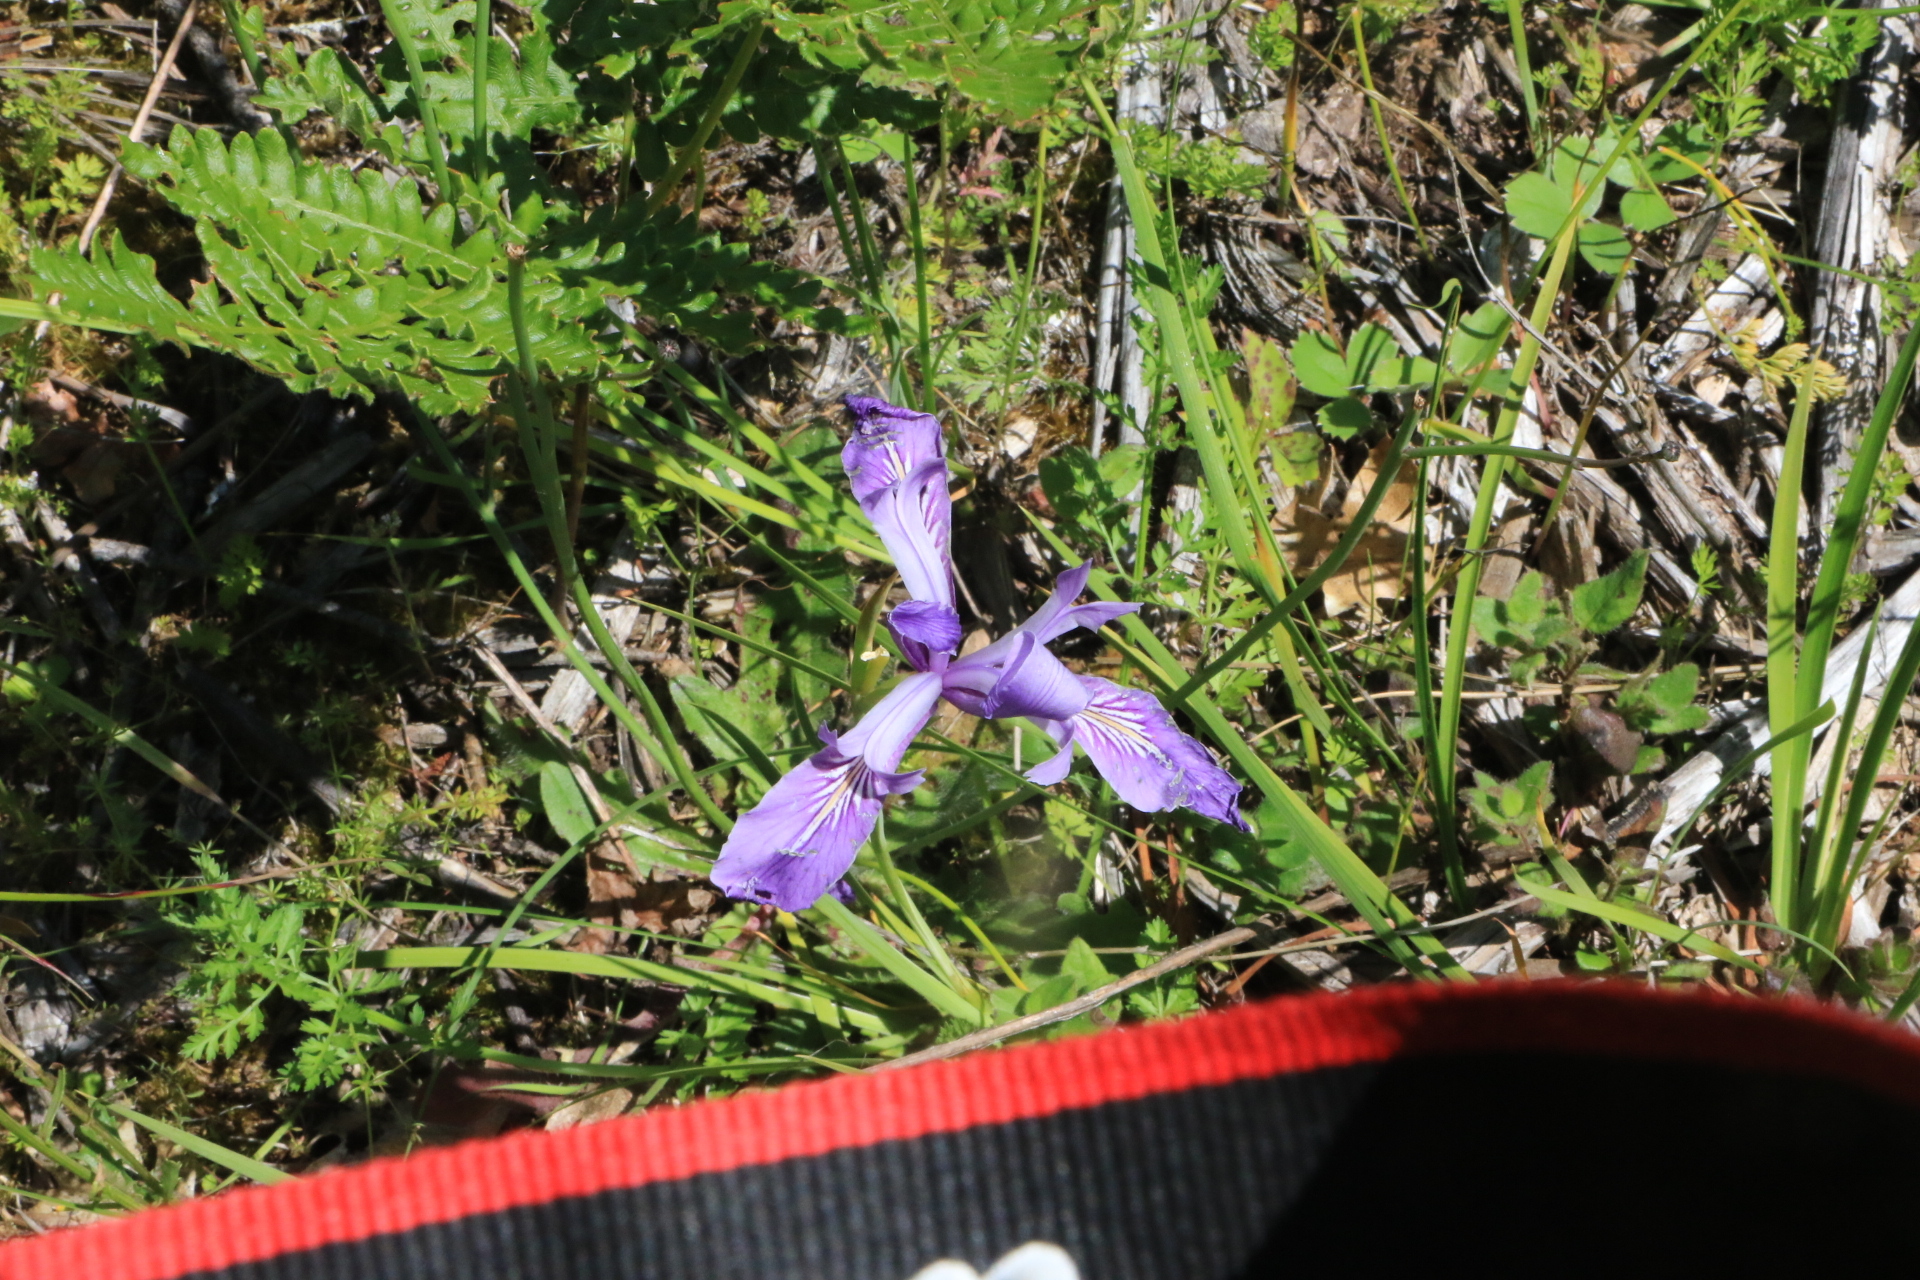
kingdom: Plantae
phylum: Tracheophyta
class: Liliopsida
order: Asparagales
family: Iridaceae
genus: Iris
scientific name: Iris tenax
